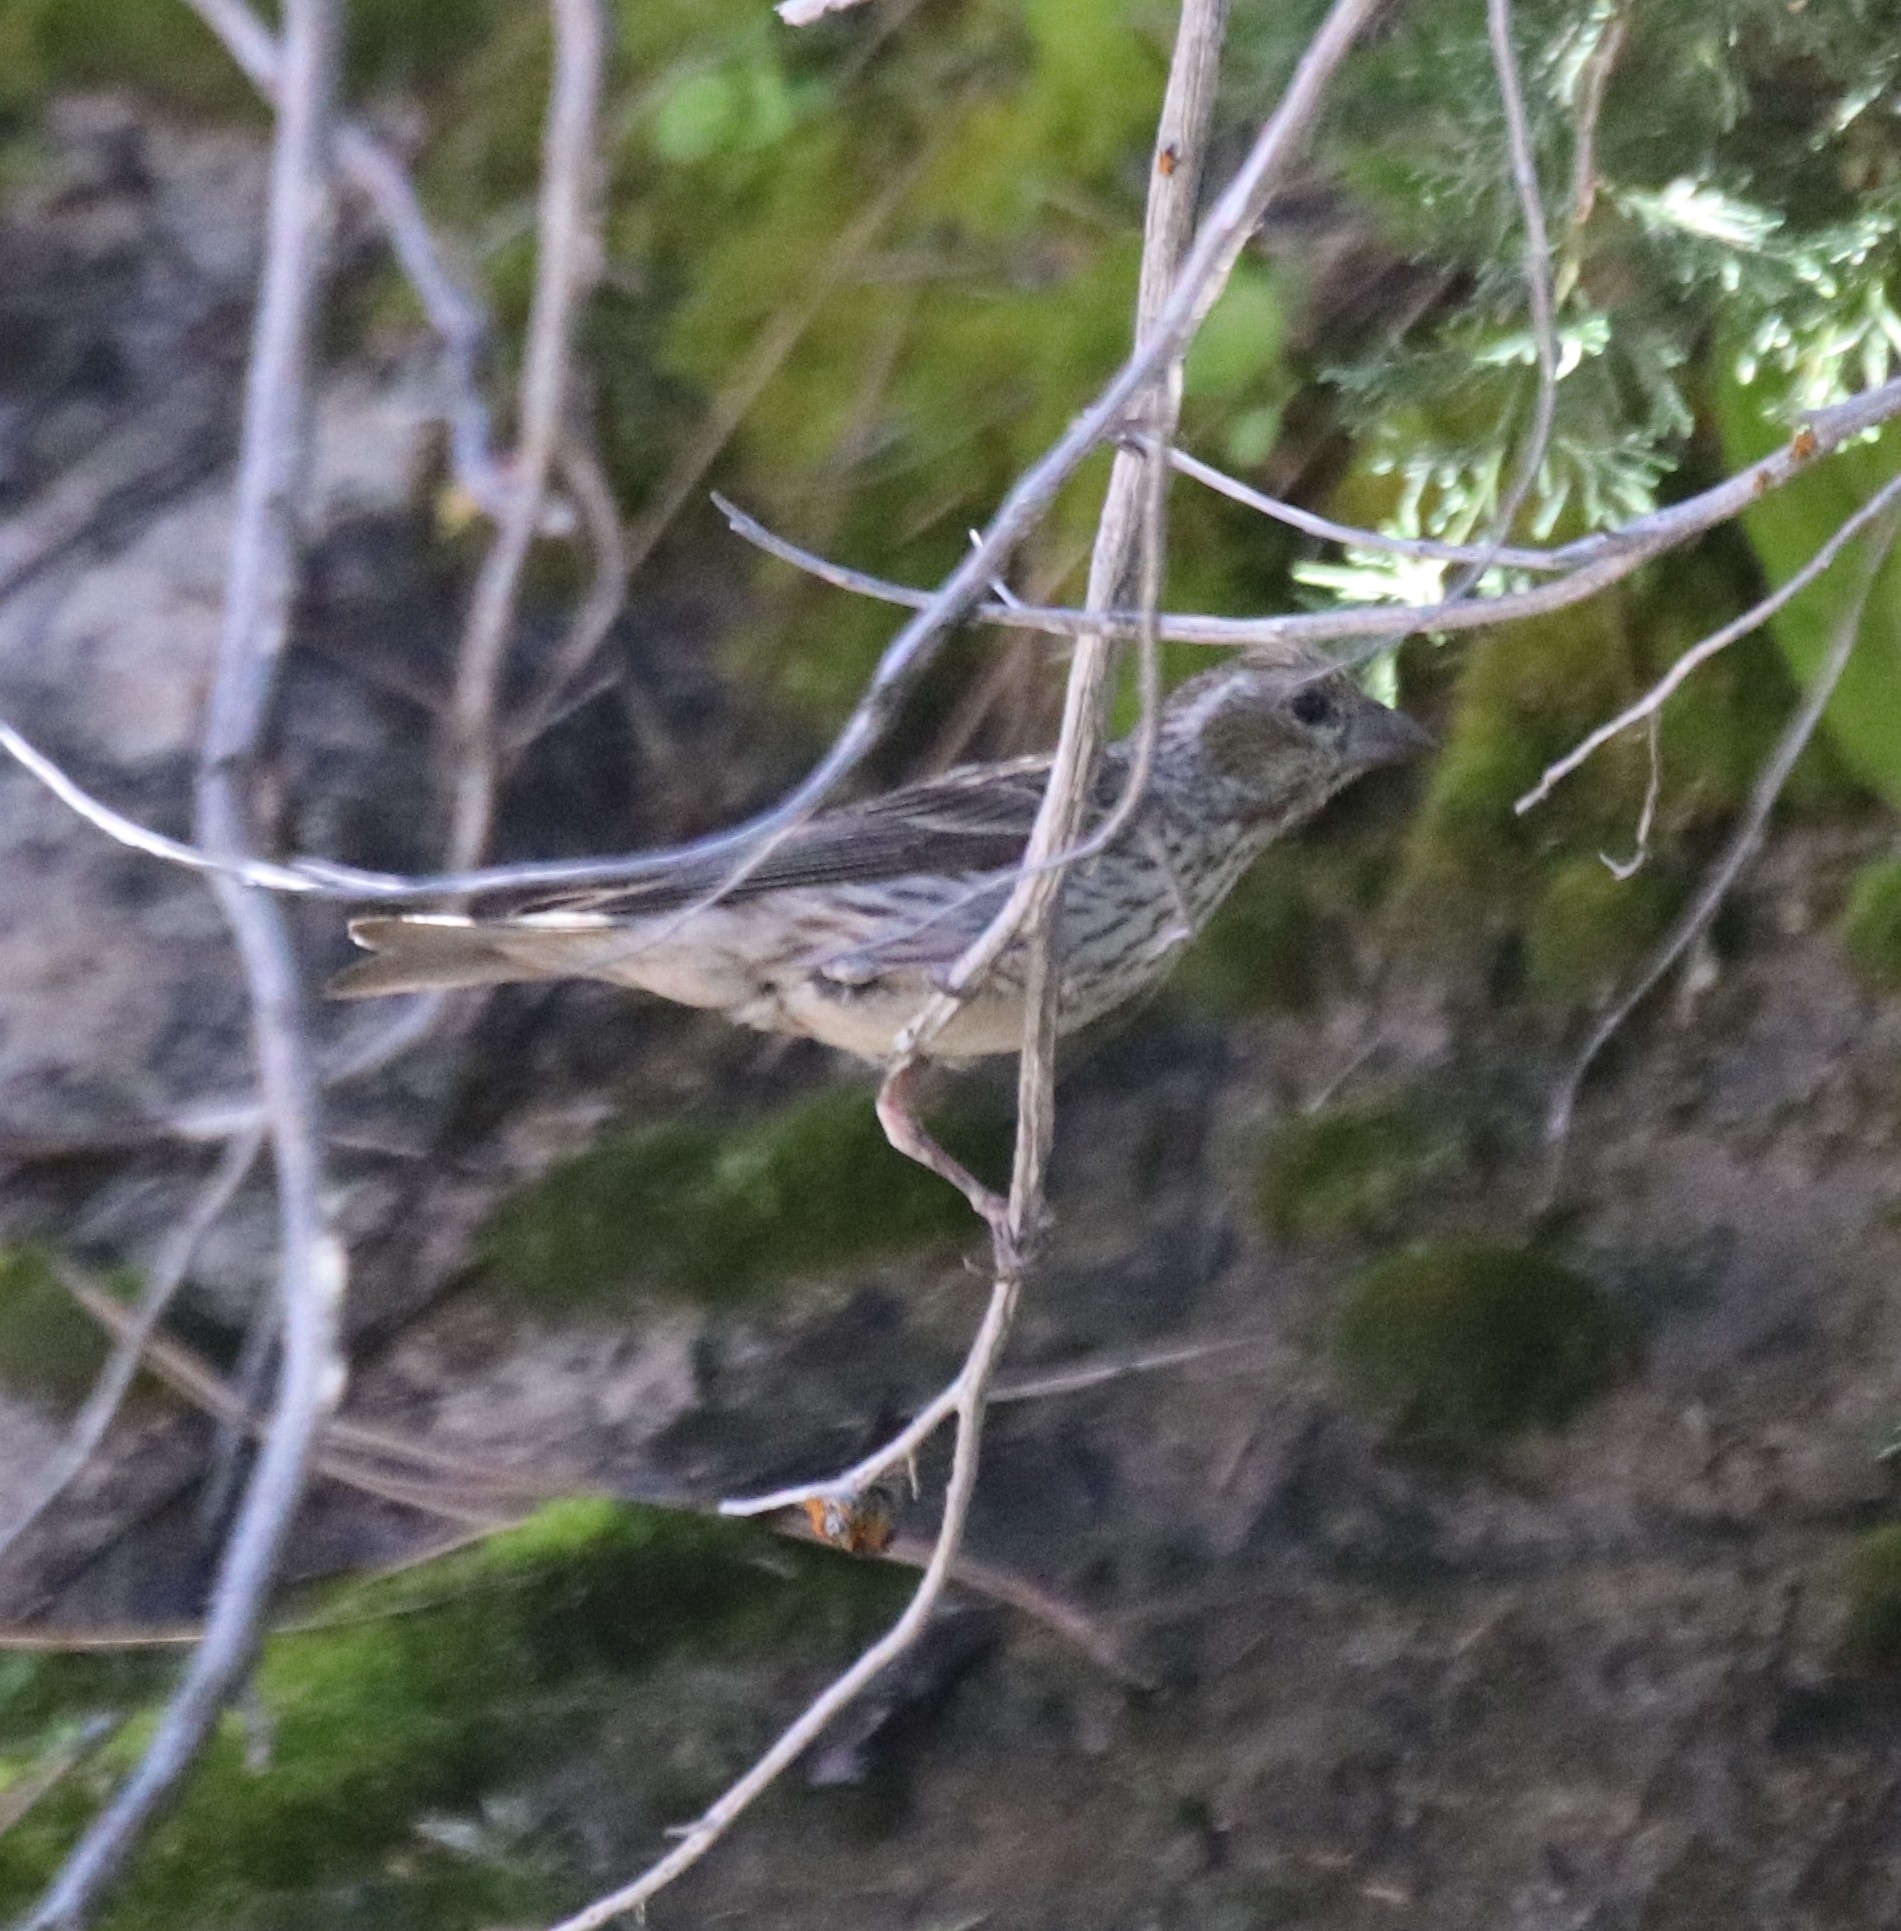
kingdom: Animalia
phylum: Chordata
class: Aves
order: Passeriformes
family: Fringillidae
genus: Haemorhous
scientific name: Haemorhous cassinii
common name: Cassin's finch
